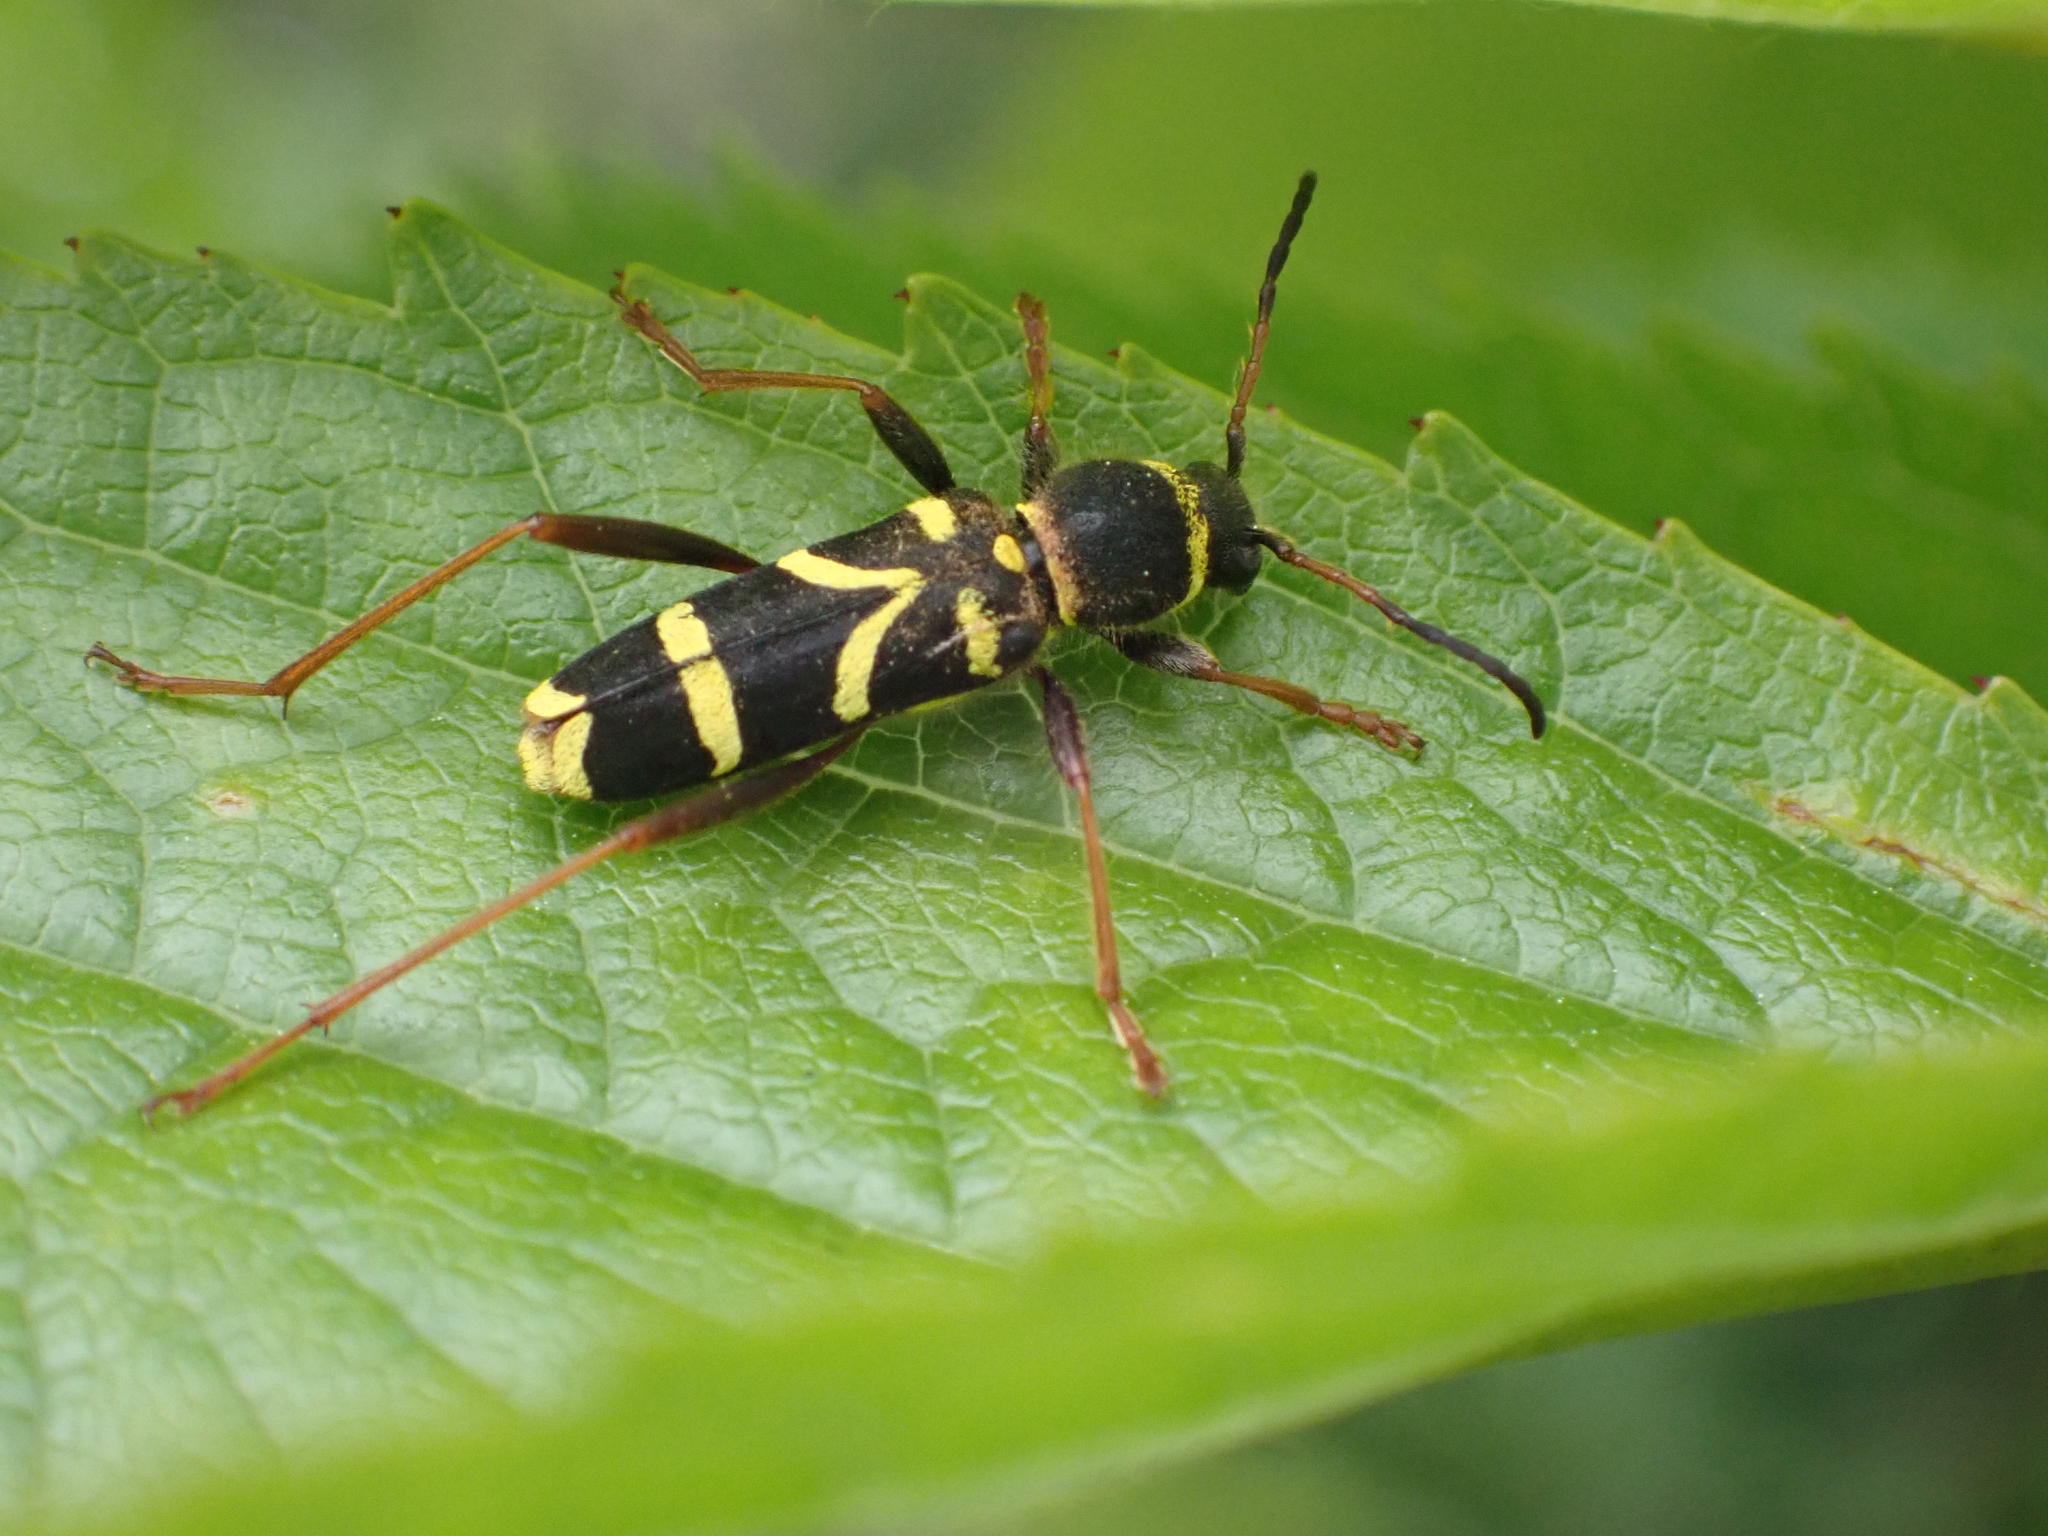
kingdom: Animalia
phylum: Arthropoda
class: Insecta
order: Coleoptera
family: Cerambycidae
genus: Clytus
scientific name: Clytus arietis
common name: Wasp beetle
